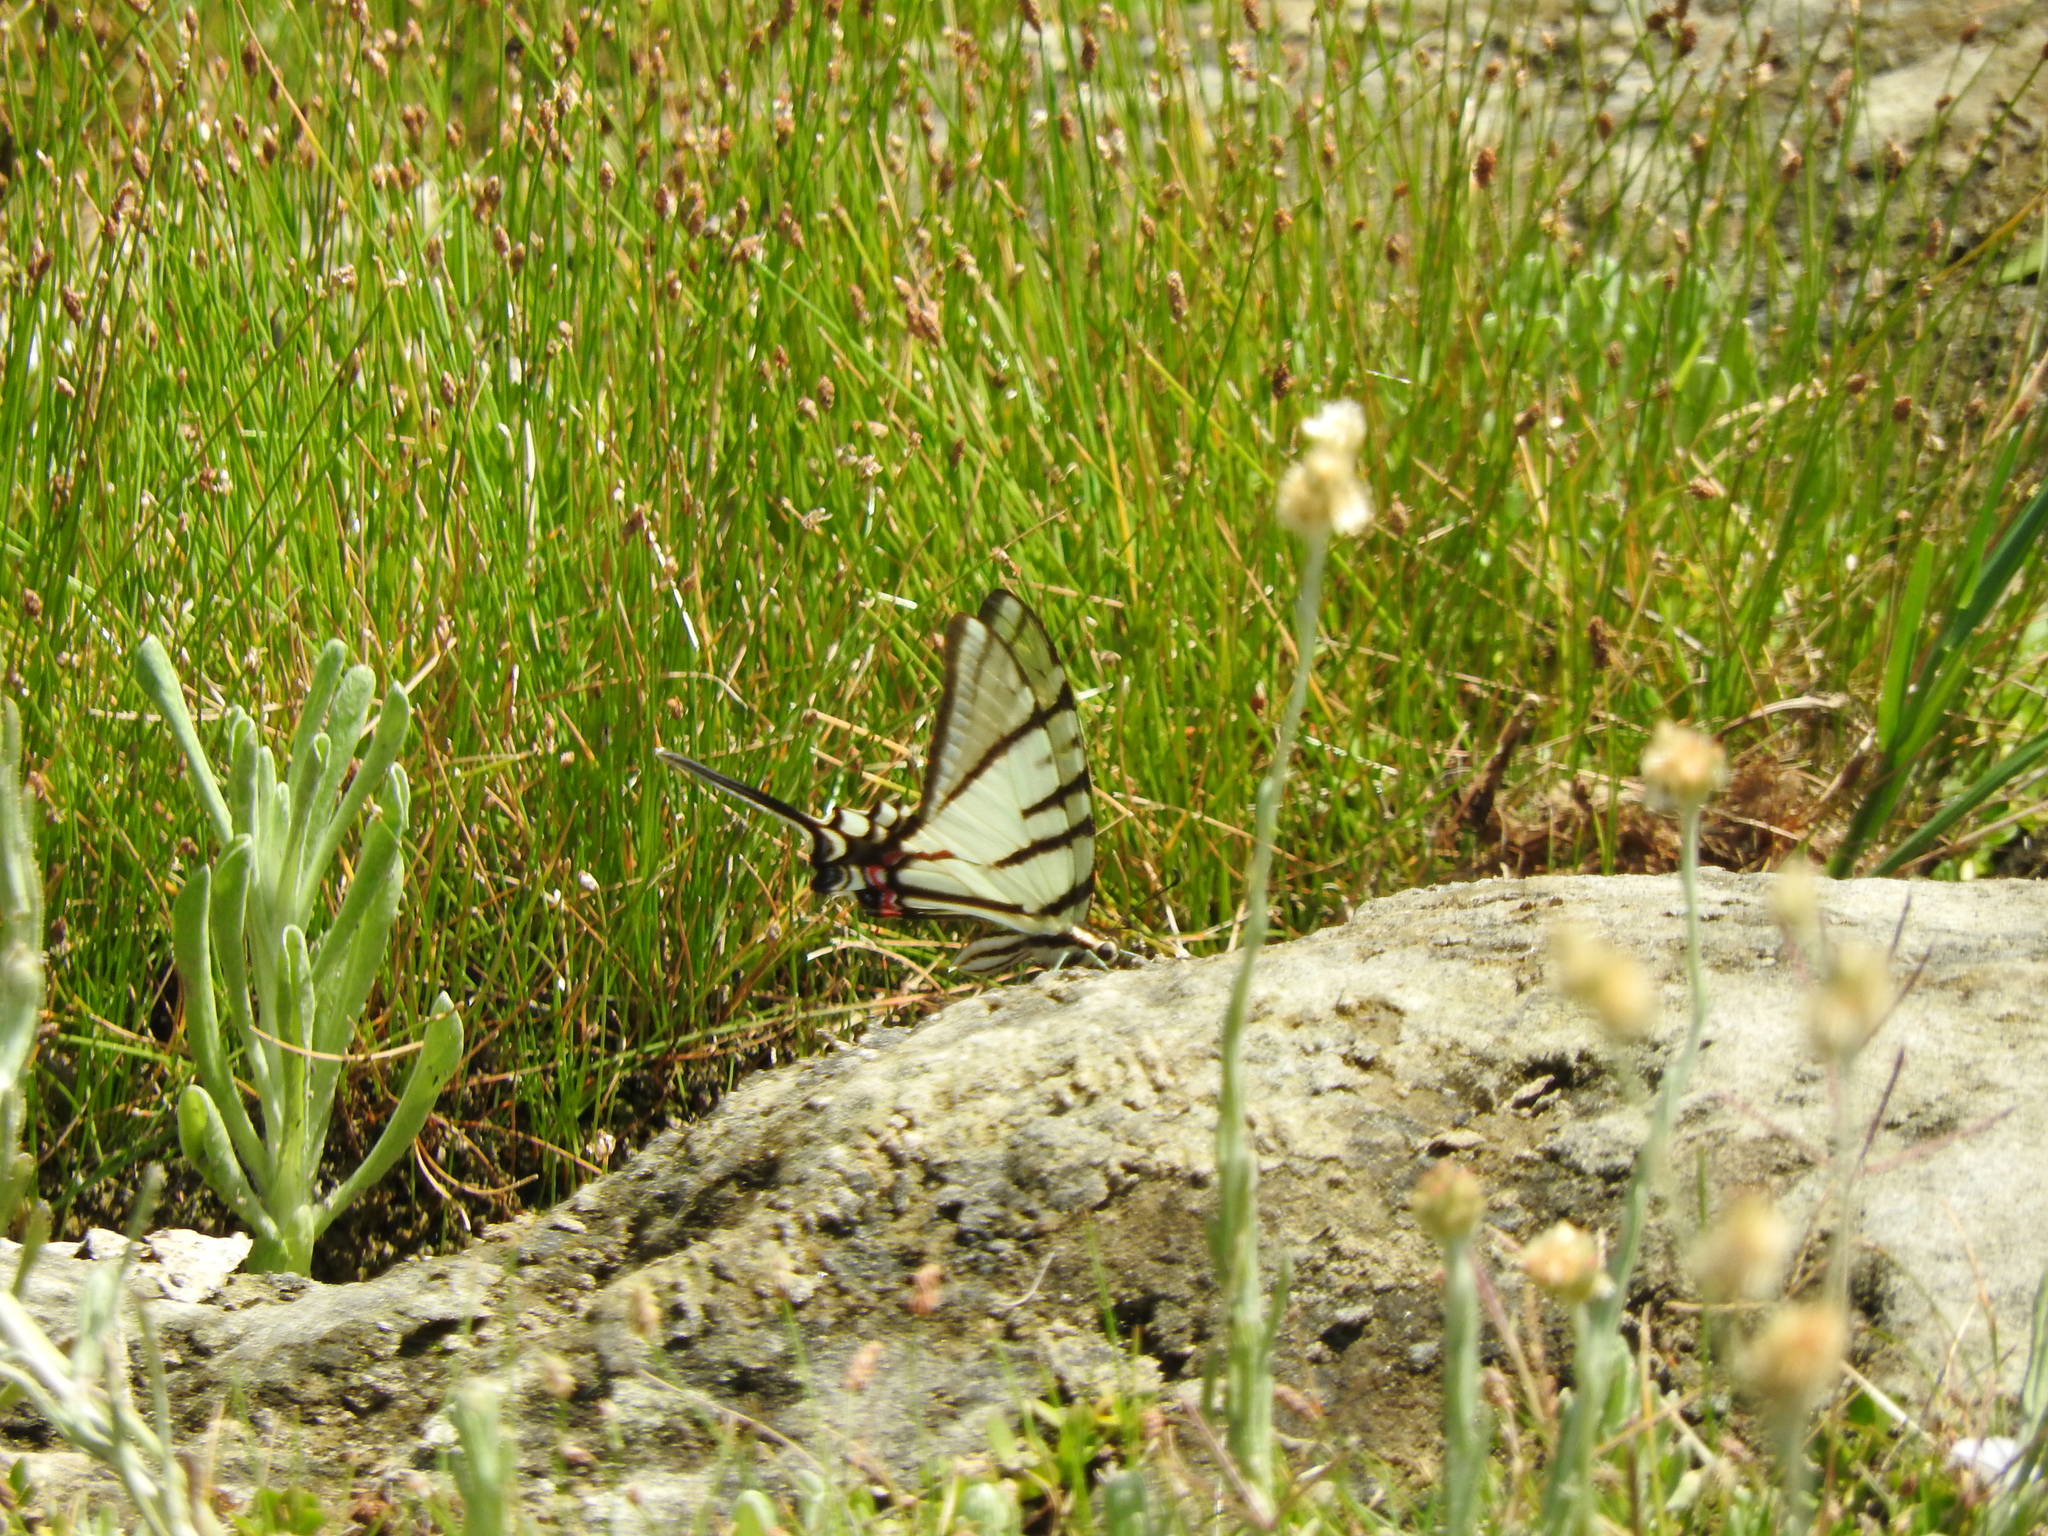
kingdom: Animalia
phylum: Arthropoda
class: Insecta
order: Lepidoptera
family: Papilionidae
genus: Protographium
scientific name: Protographium epidaus
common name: Mexican kite swallowtail
